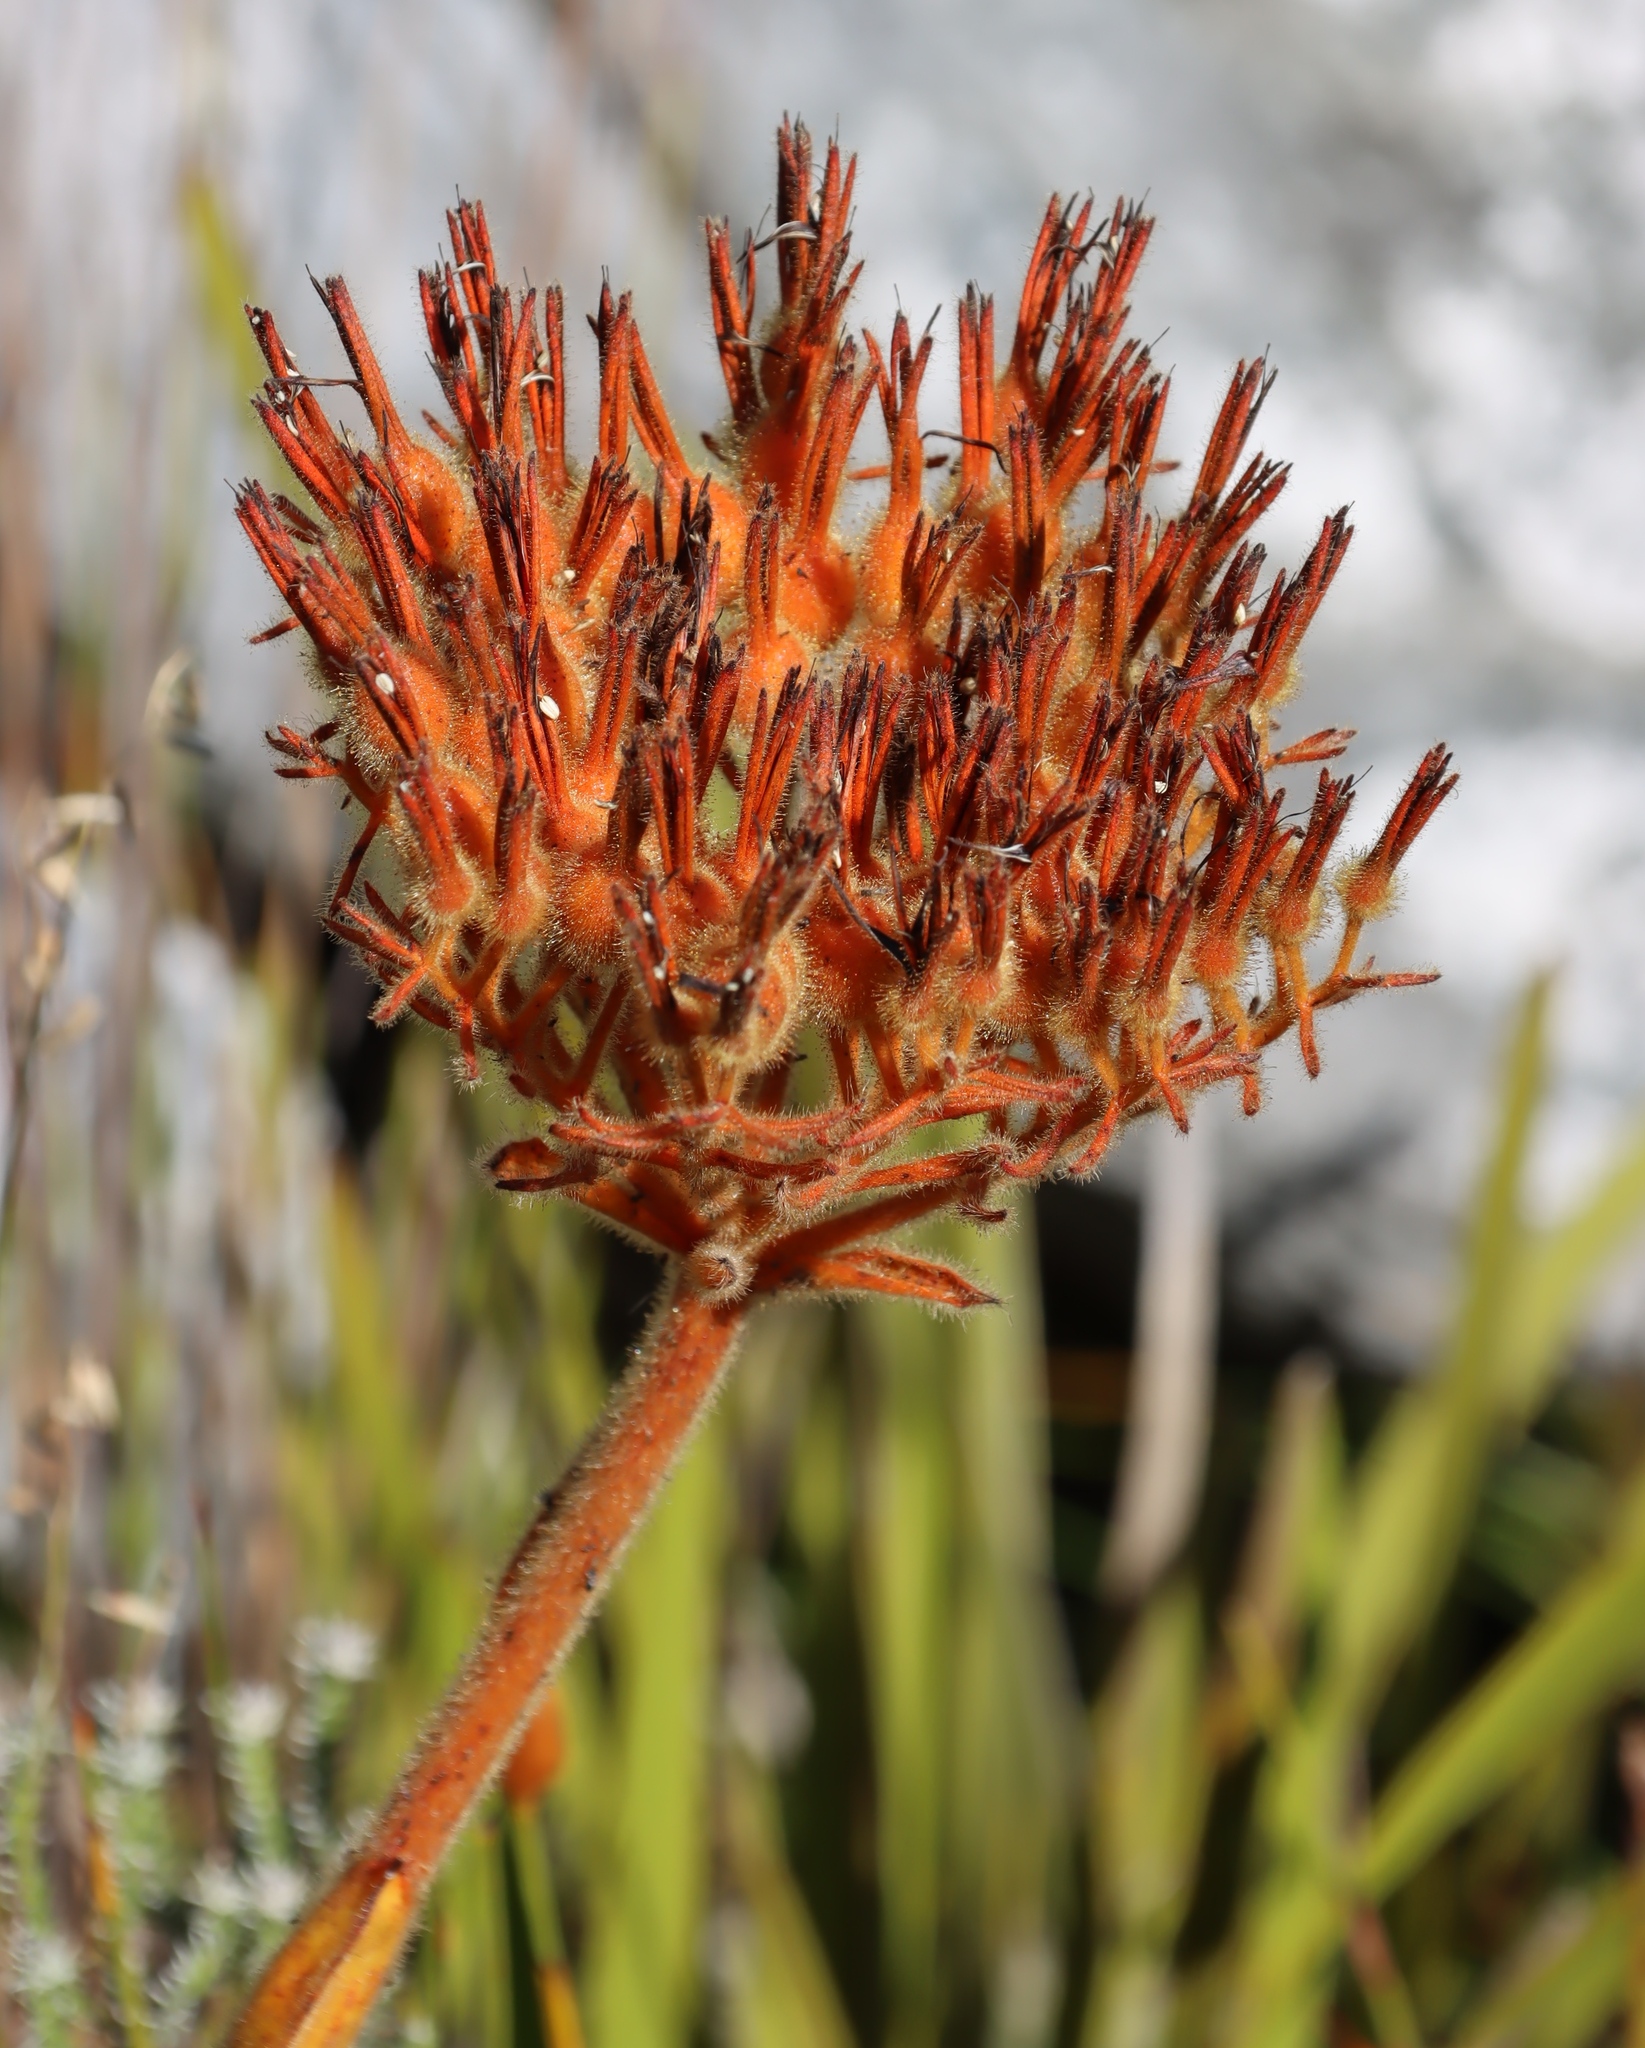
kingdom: Plantae
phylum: Tracheophyta
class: Liliopsida
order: Commelinales
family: Haemodoraceae
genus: Dilatris
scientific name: Dilatris viscosa
